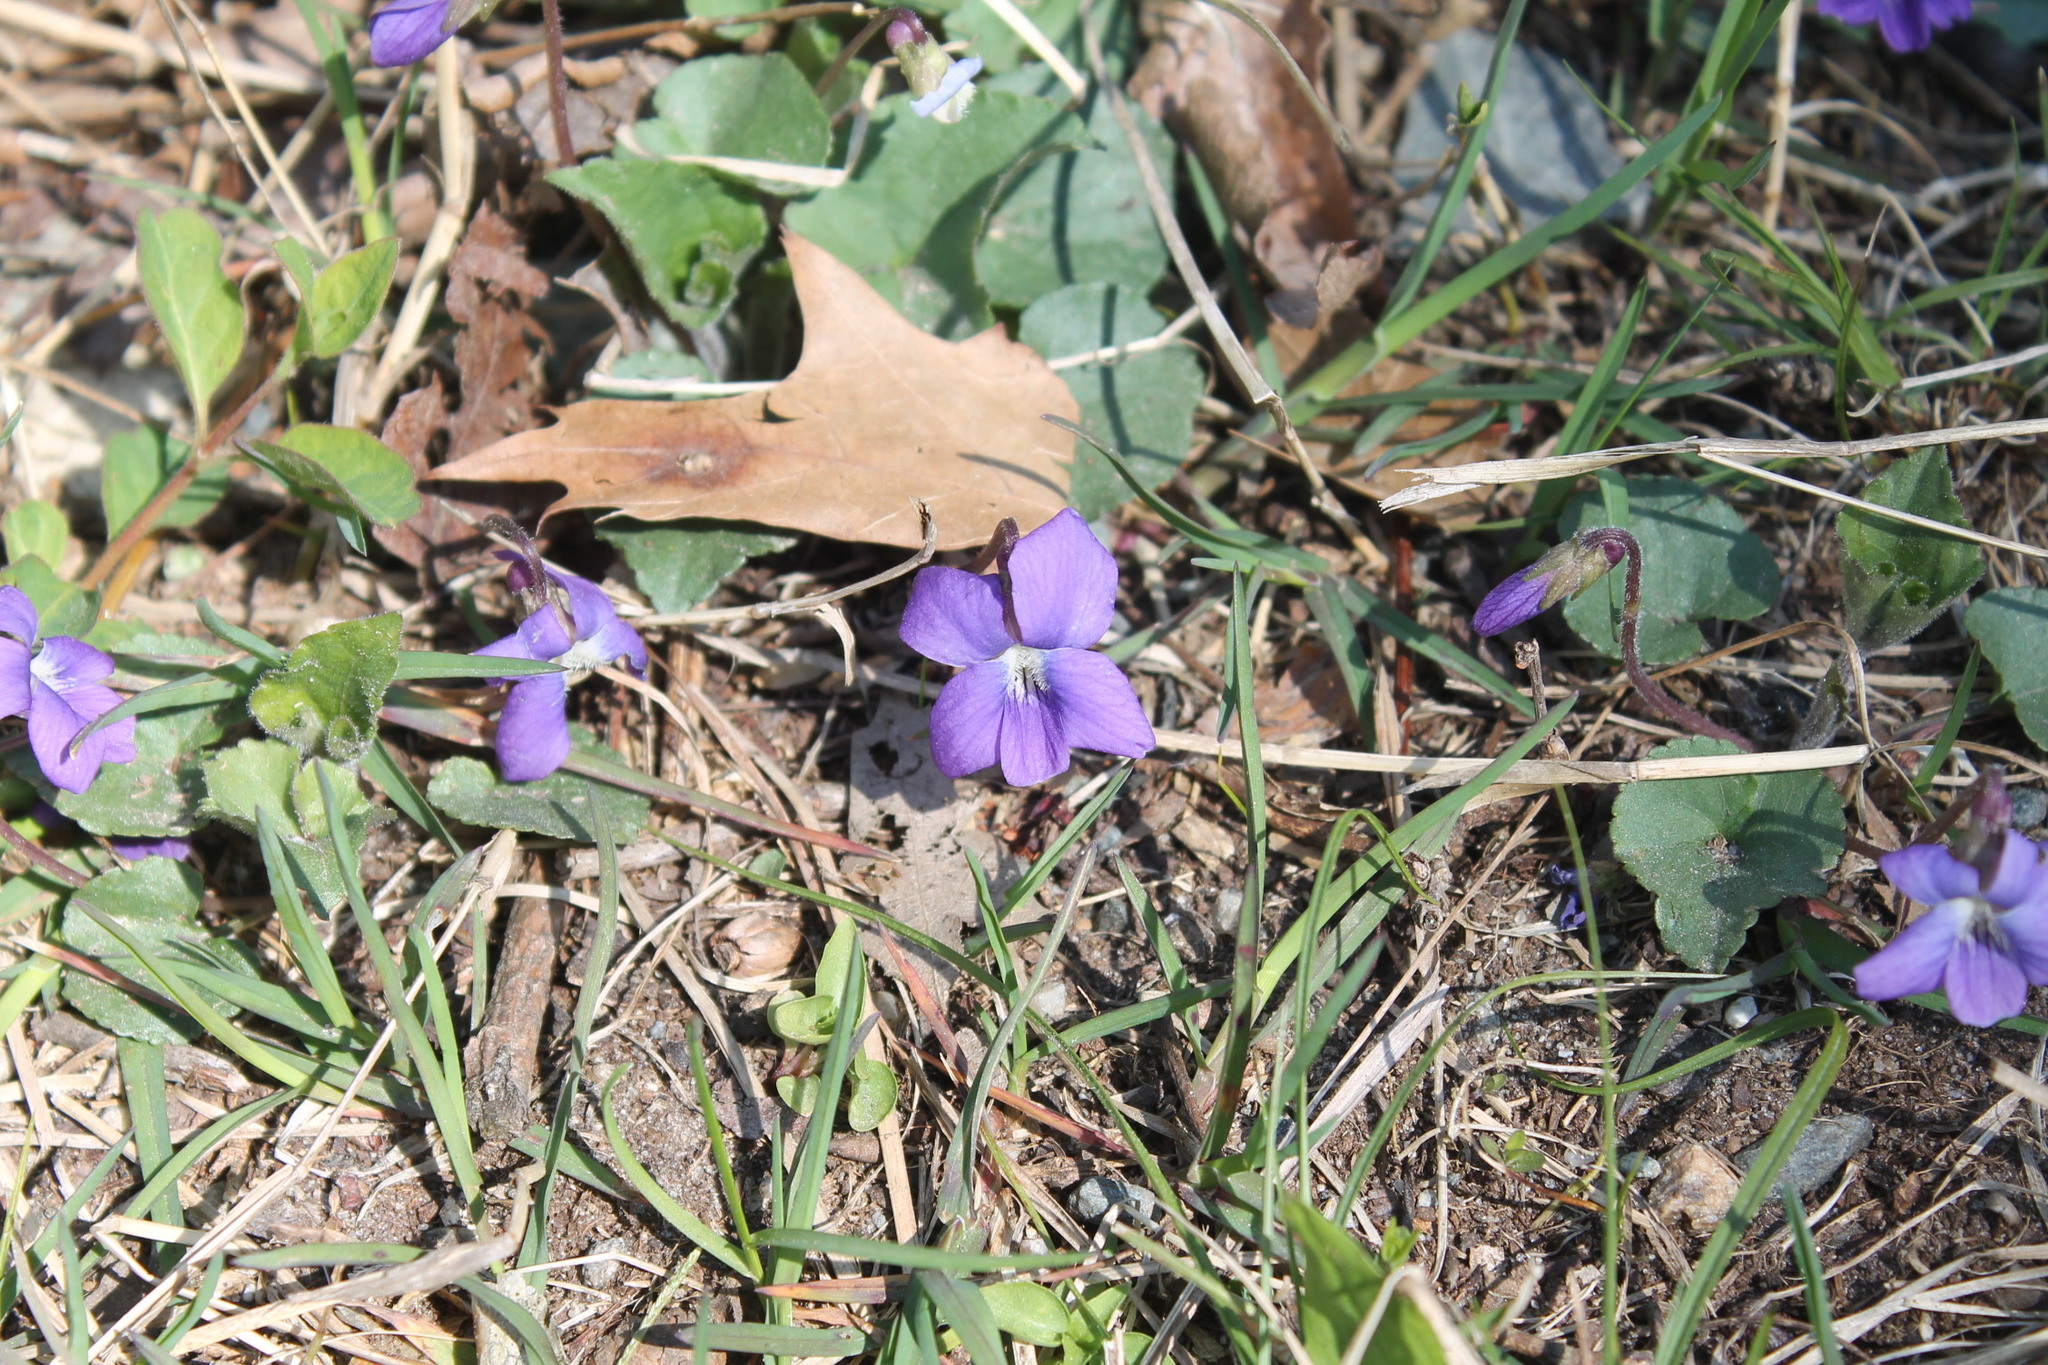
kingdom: Plantae
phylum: Tracheophyta
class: Magnoliopsida
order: Malpighiales
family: Violaceae
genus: Viola
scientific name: Viola sororia
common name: Dooryard violet
